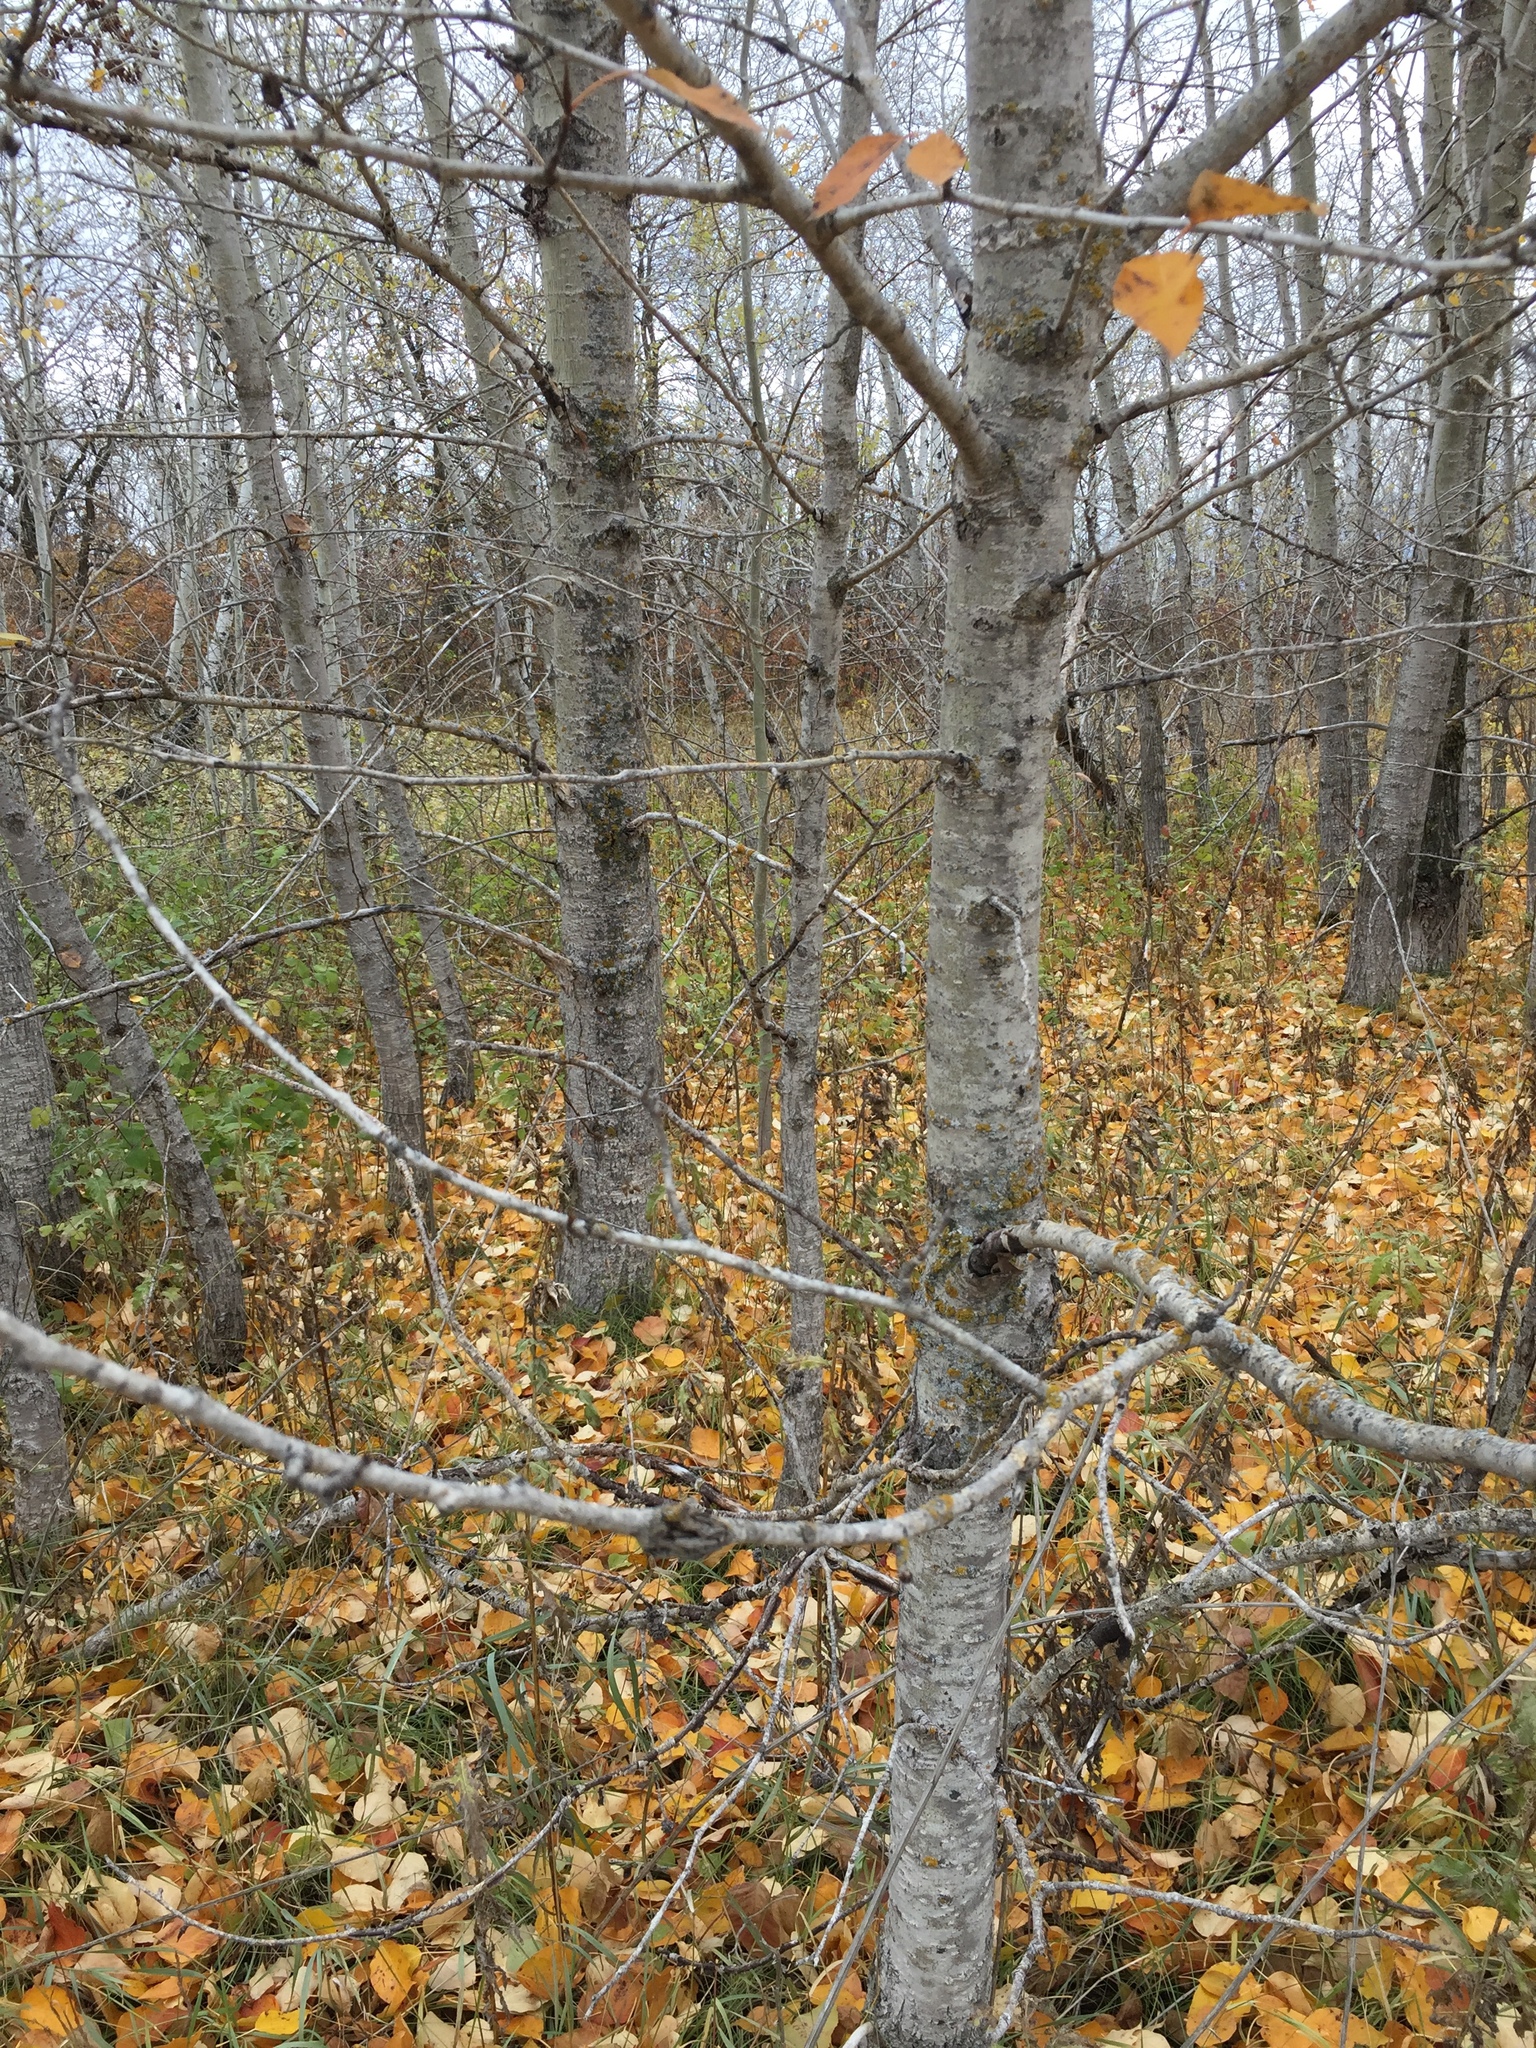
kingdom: Plantae
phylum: Tracheophyta
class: Magnoliopsida
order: Malpighiales
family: Salicaceae
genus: Populus
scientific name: Populus balsamifera
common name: Balsam poplar
